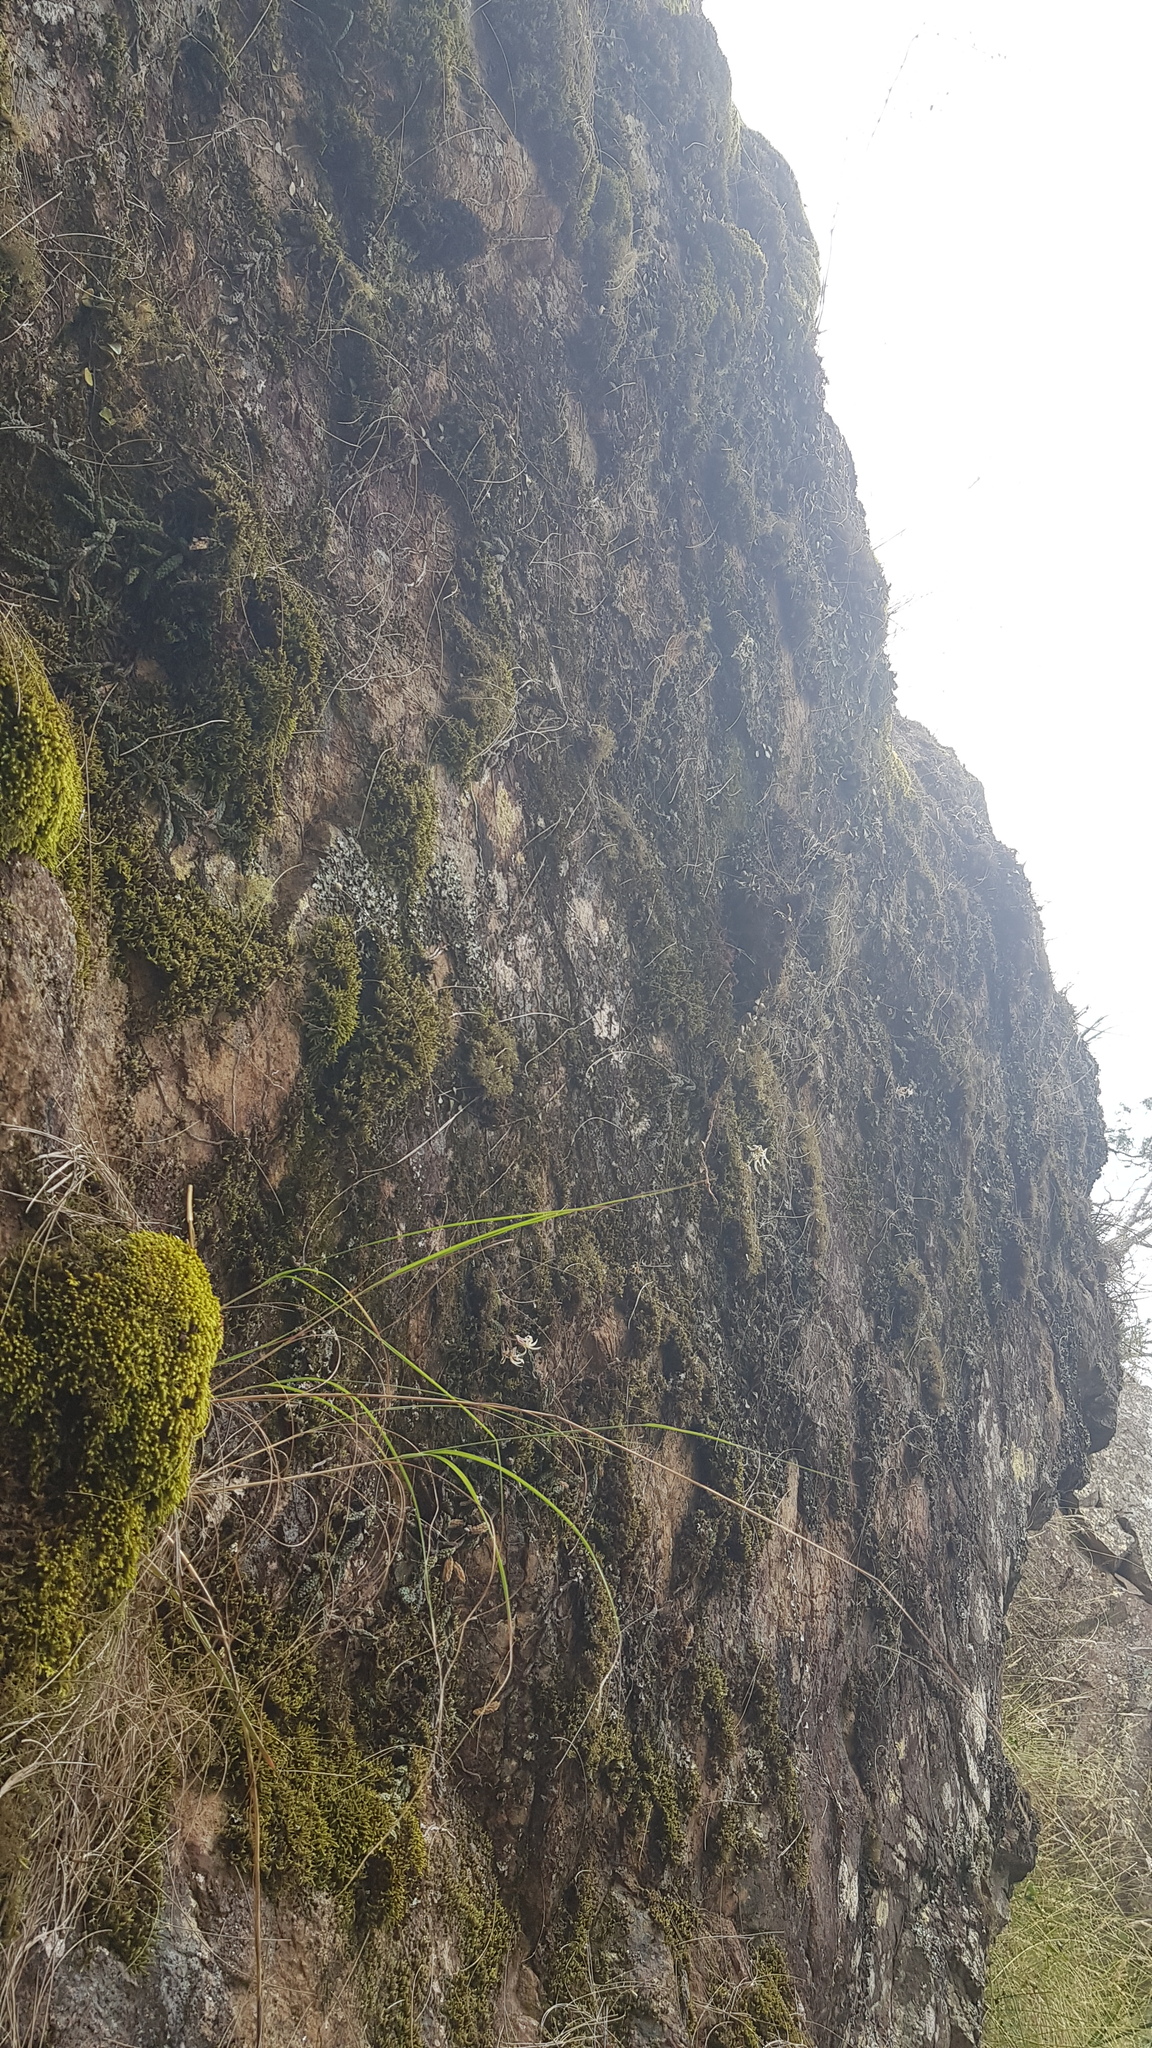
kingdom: Plantae
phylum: Tracheophyta
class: Liliopsida
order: Asparagales
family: Orchidaceae
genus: Dendrobium
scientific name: Dendrobium cucumerinum
